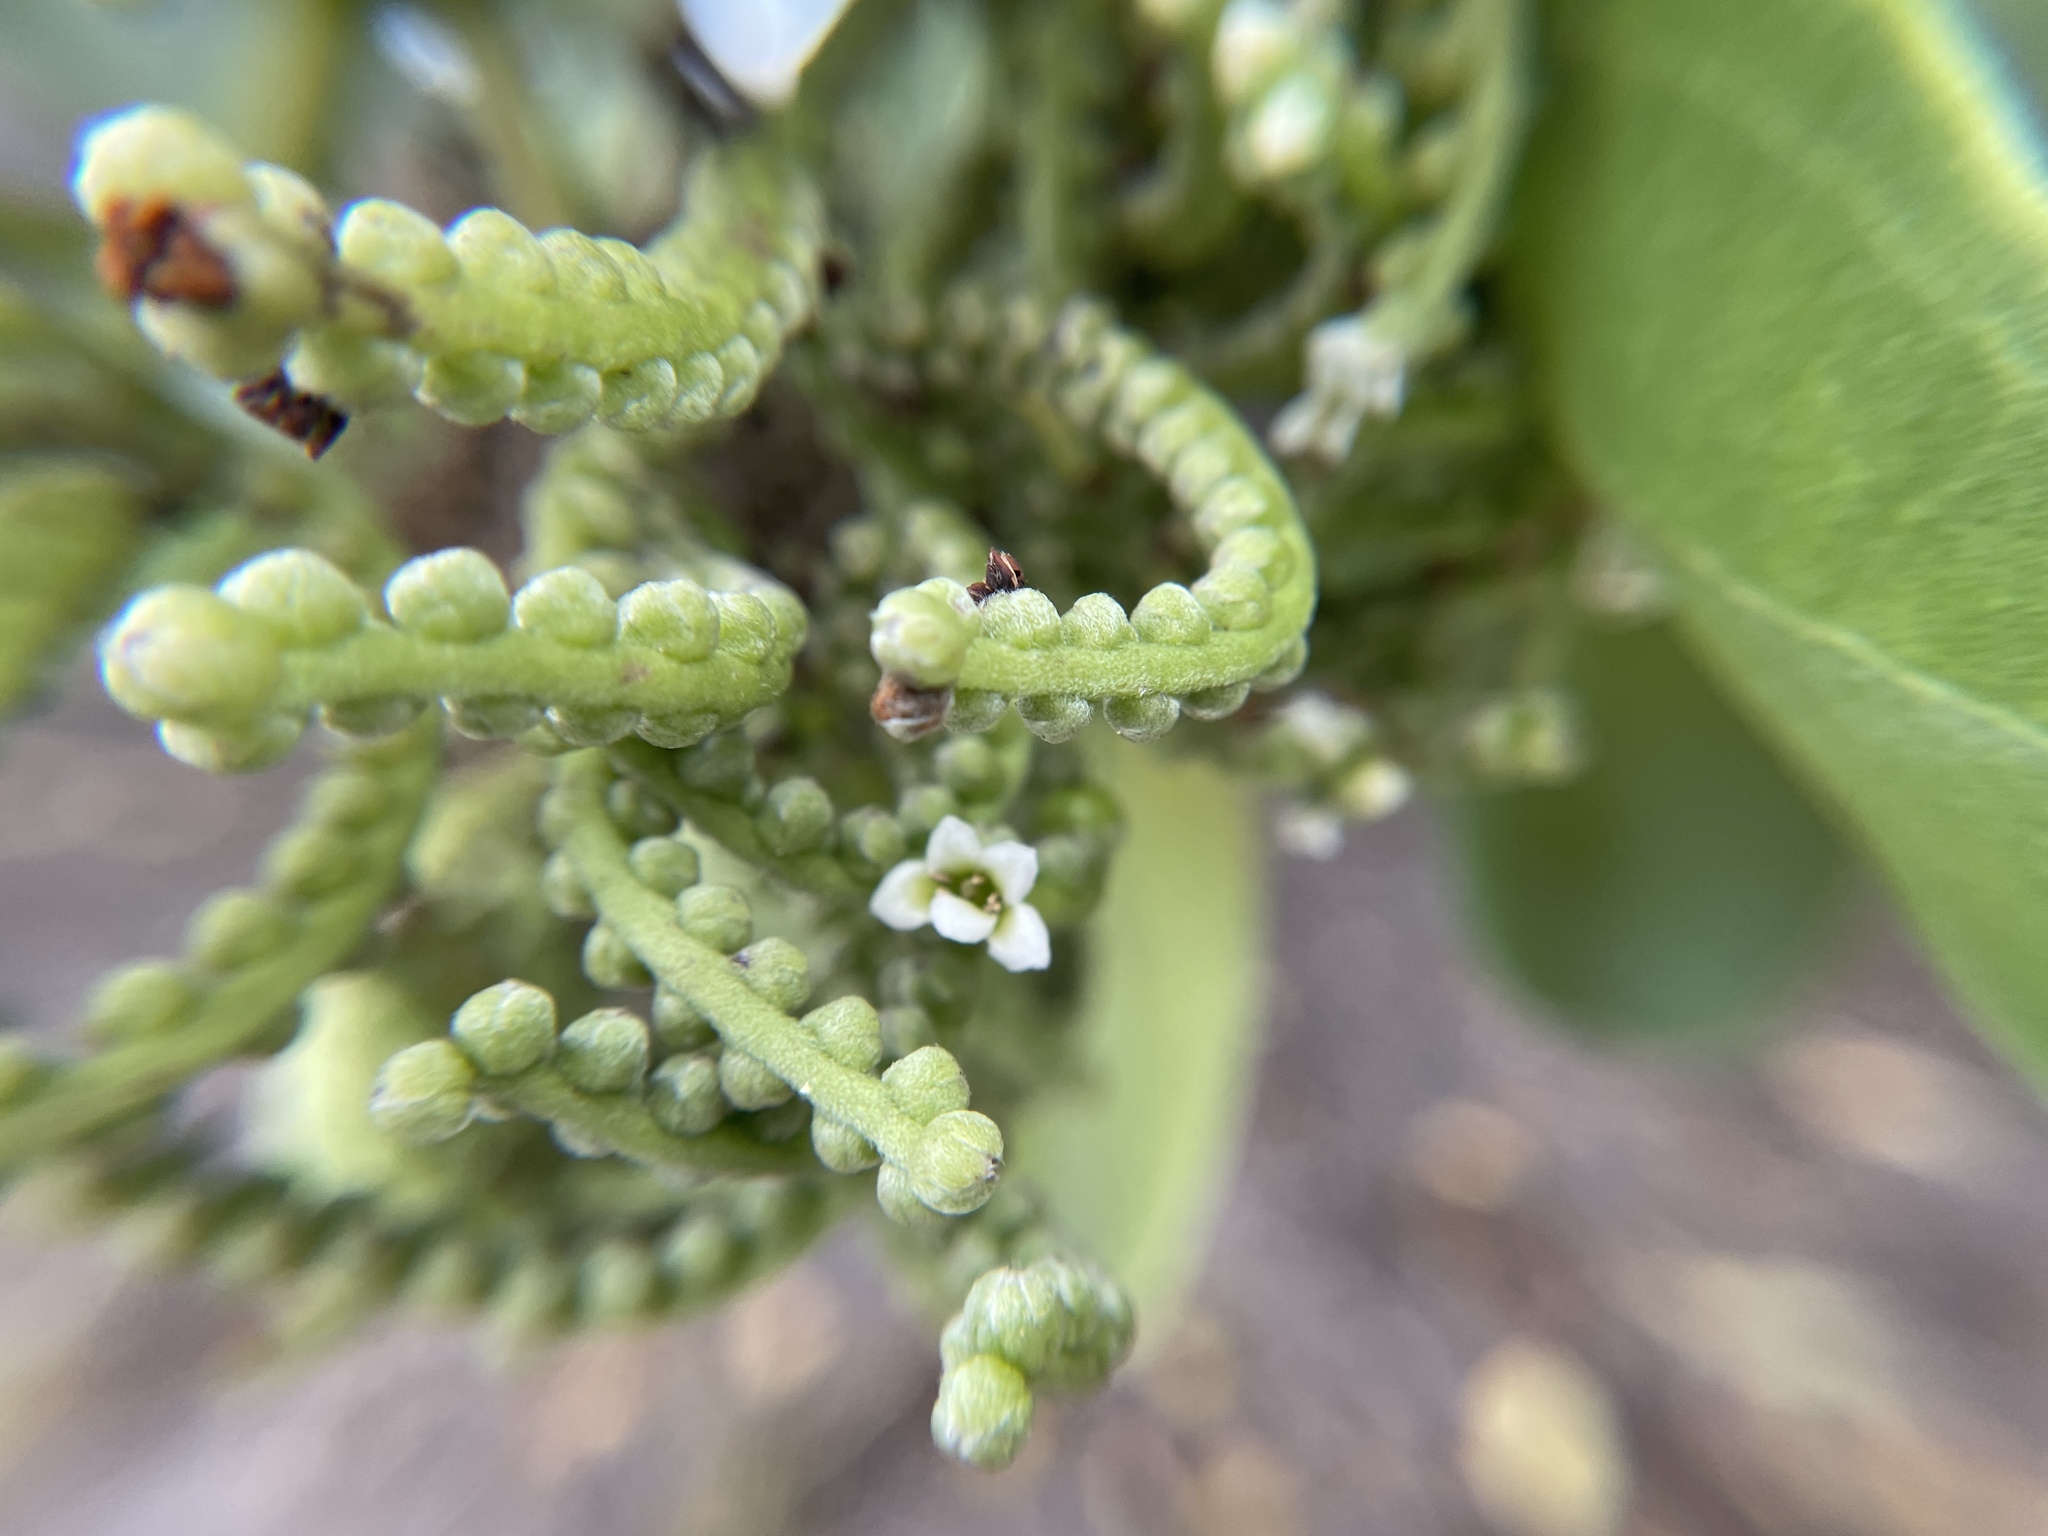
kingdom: Plantae
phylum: Tracheophyta
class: Magnoliopsida
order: Boraginales
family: Heliotropiaceae
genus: Heliotropium
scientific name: Heliotropium velutinum
